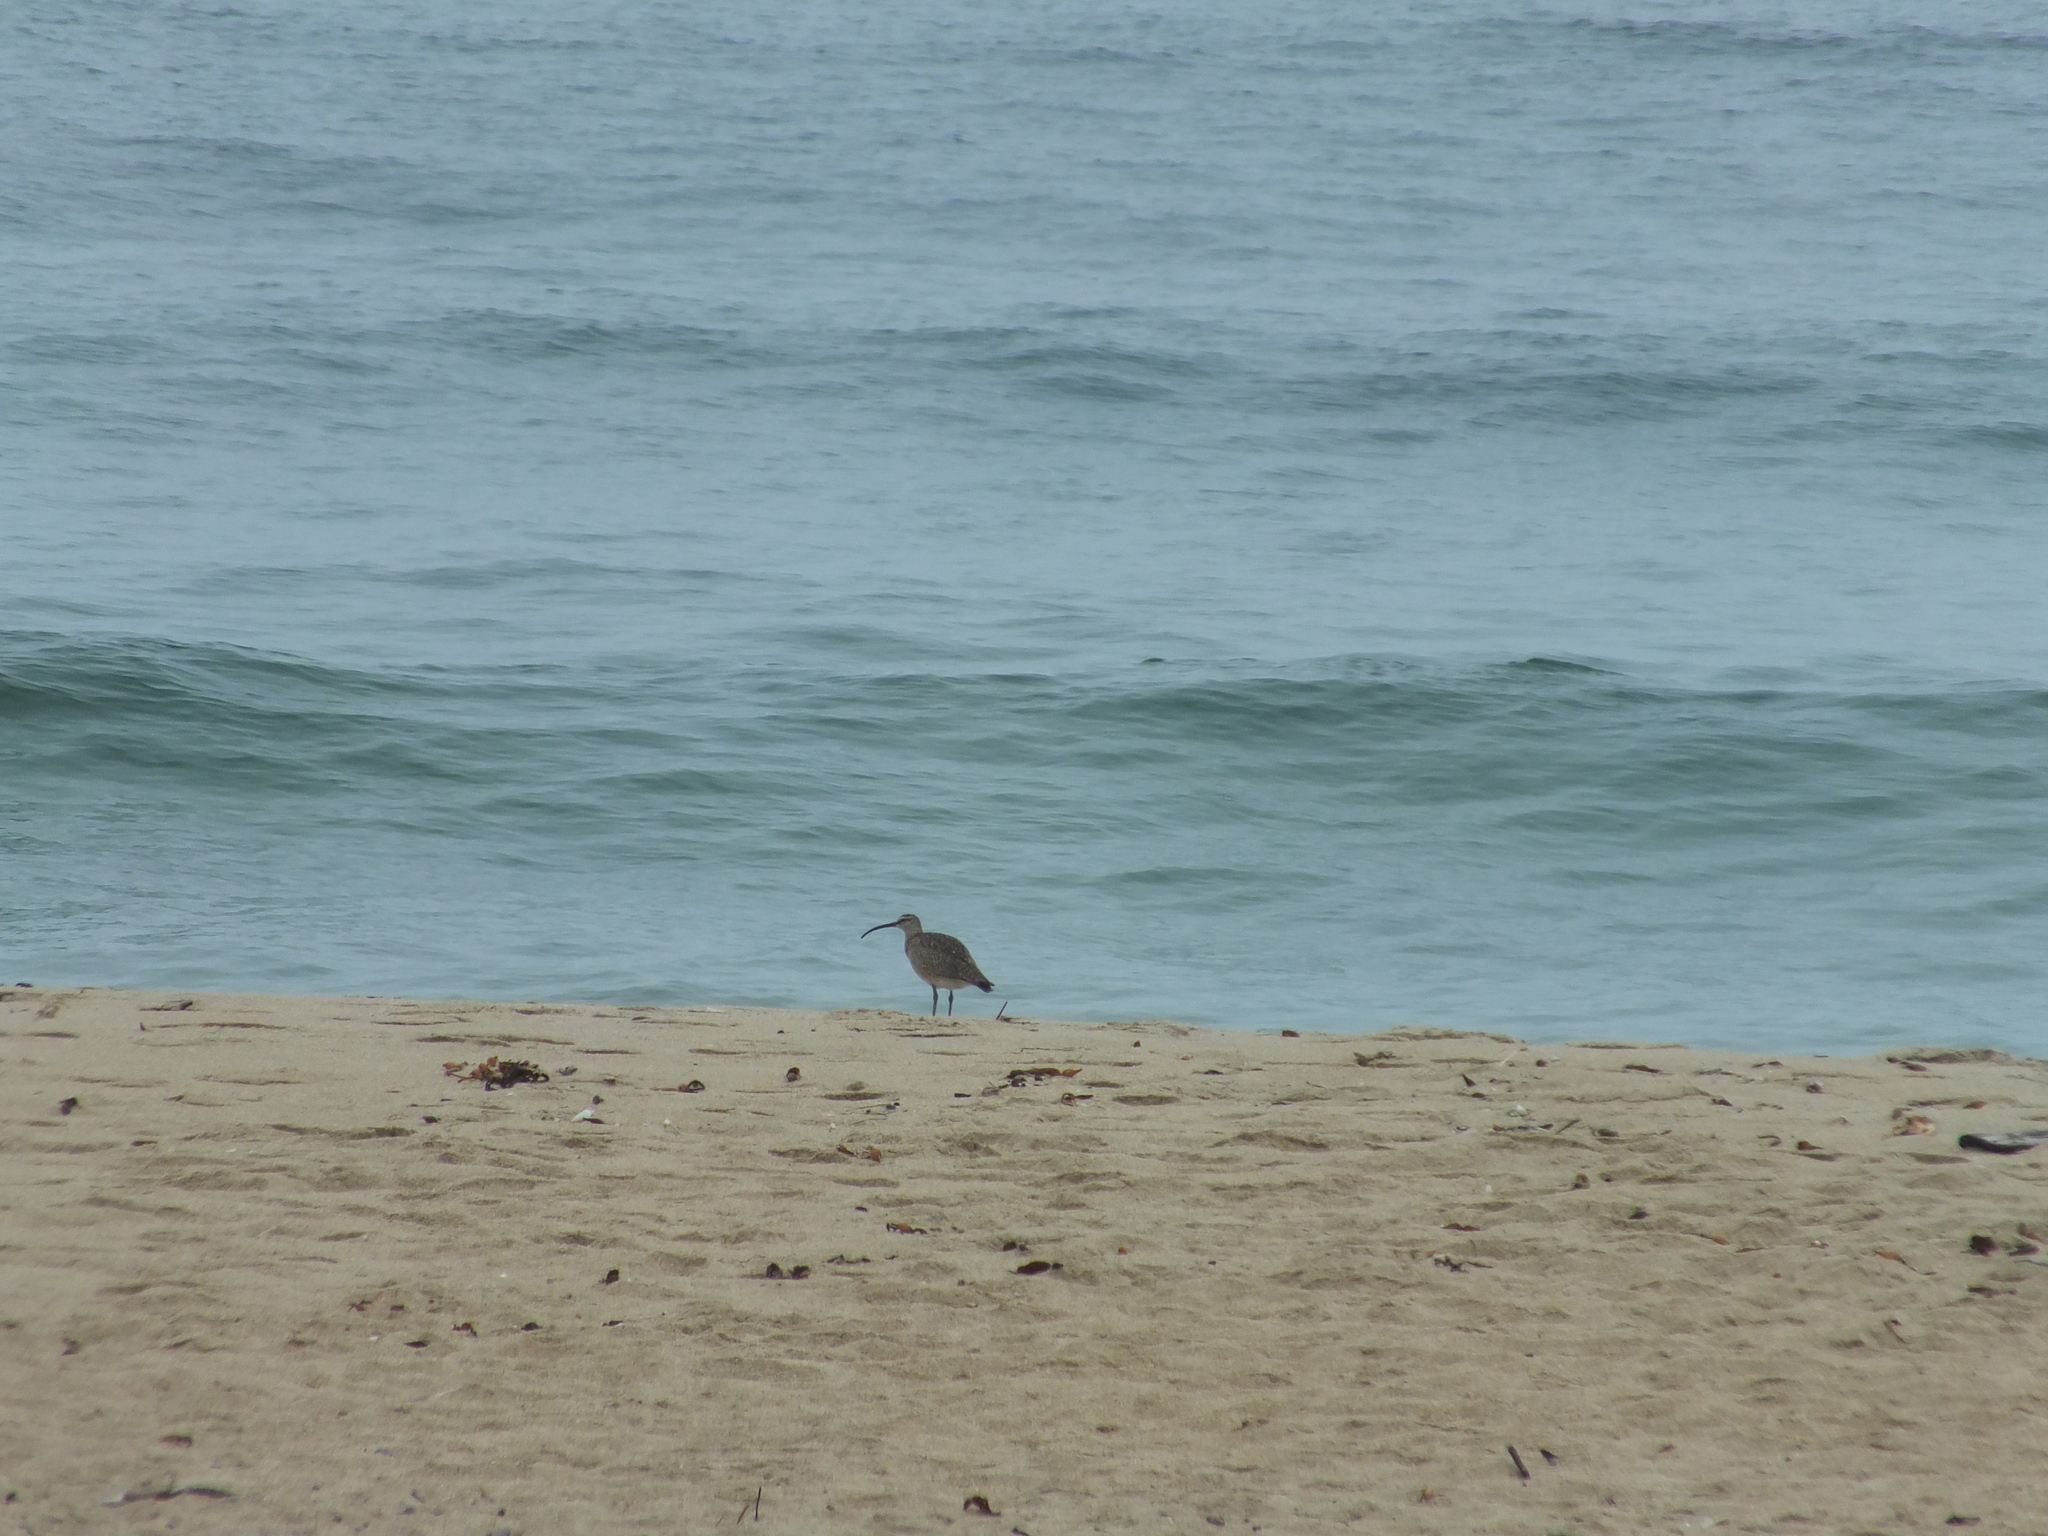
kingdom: Animalia
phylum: Chordata
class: Aves
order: Charadriiformes
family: Scolopacidae
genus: Numenius
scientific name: Numenius phaeopus
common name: Whimbrel
